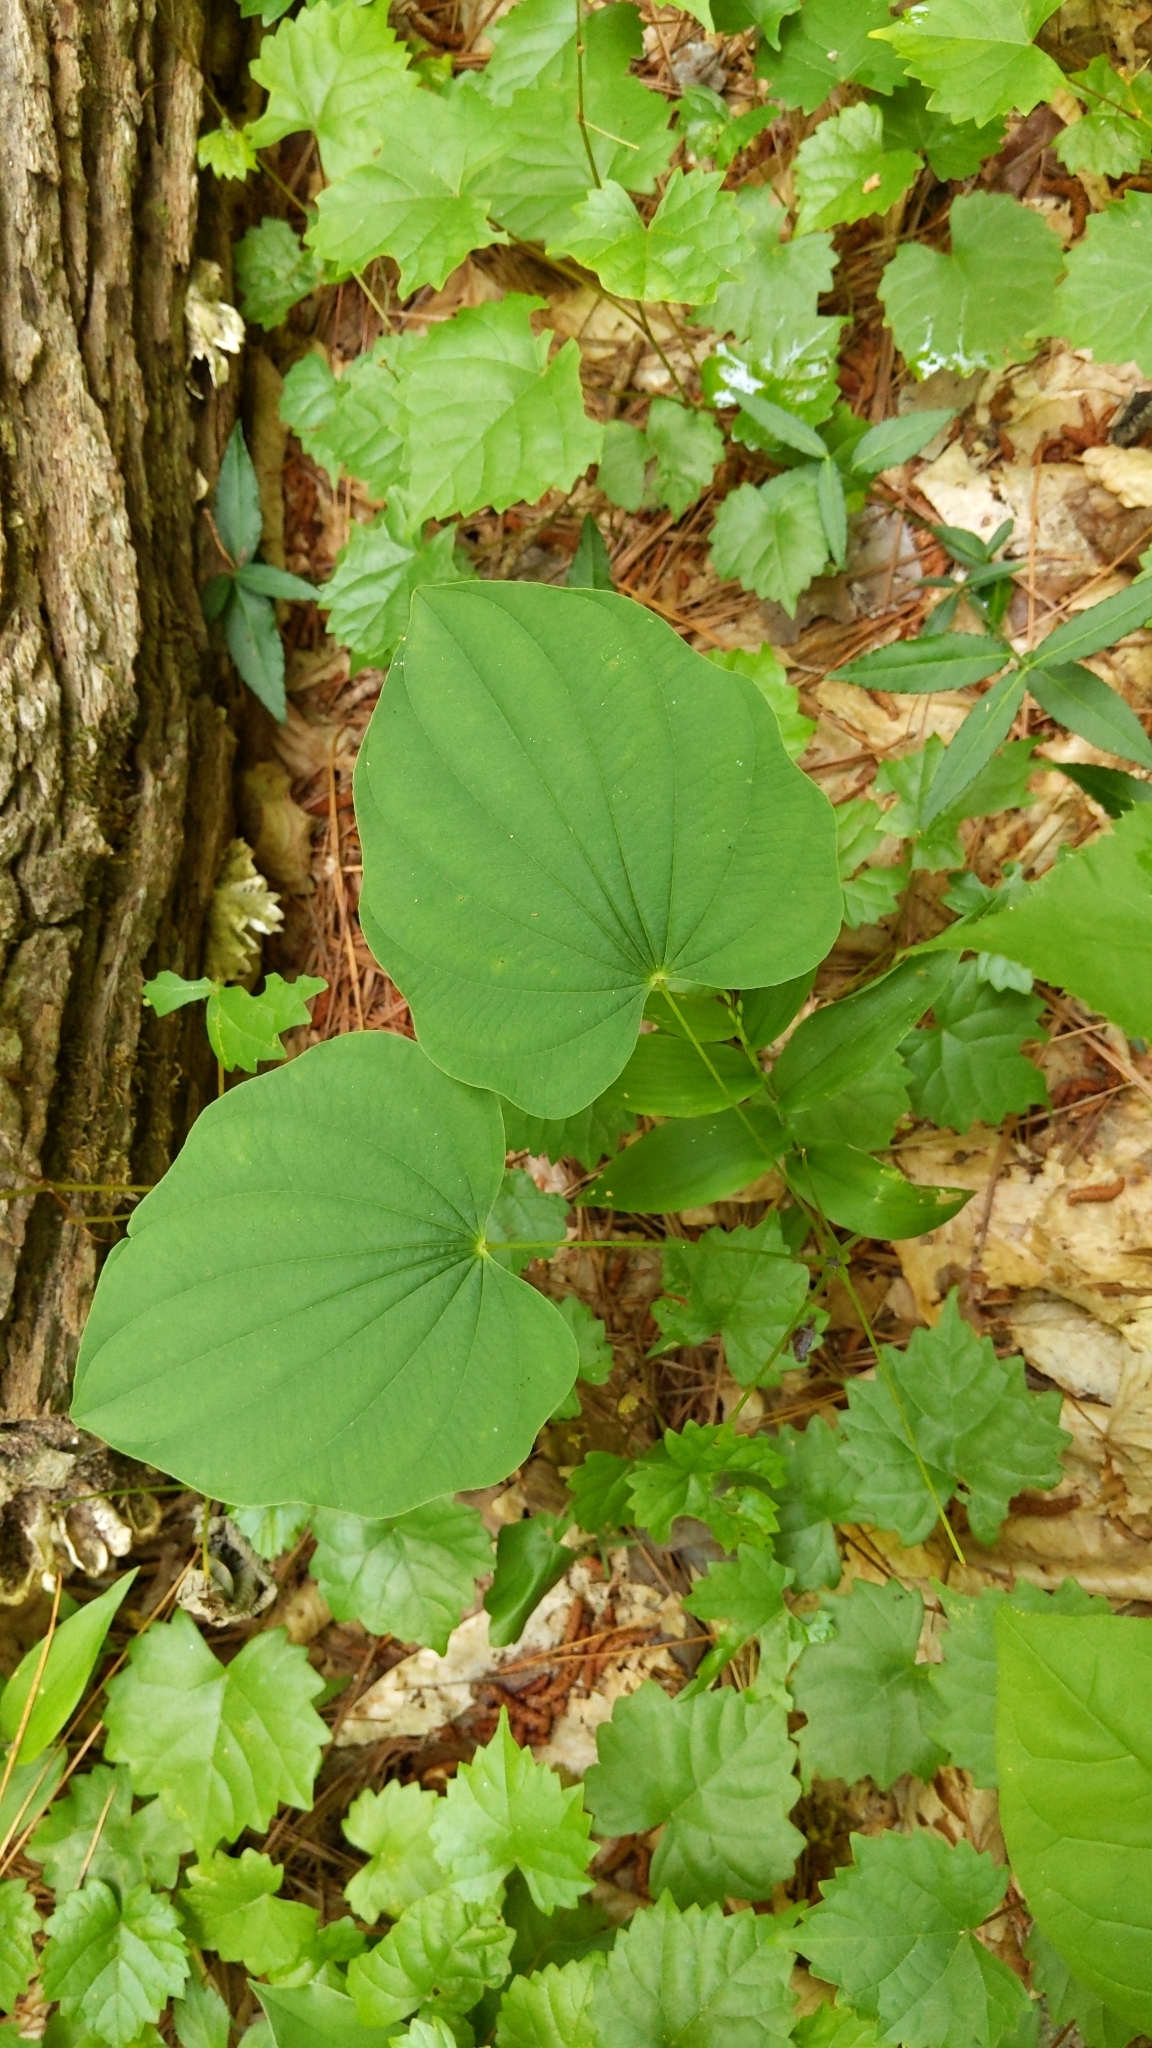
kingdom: Plantae
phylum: Tracheophyta
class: Liliopsida
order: Dioscoreales
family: Dioscoreaceae
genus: Dioscorea
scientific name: Dioscorea villosa
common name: Wild yam
